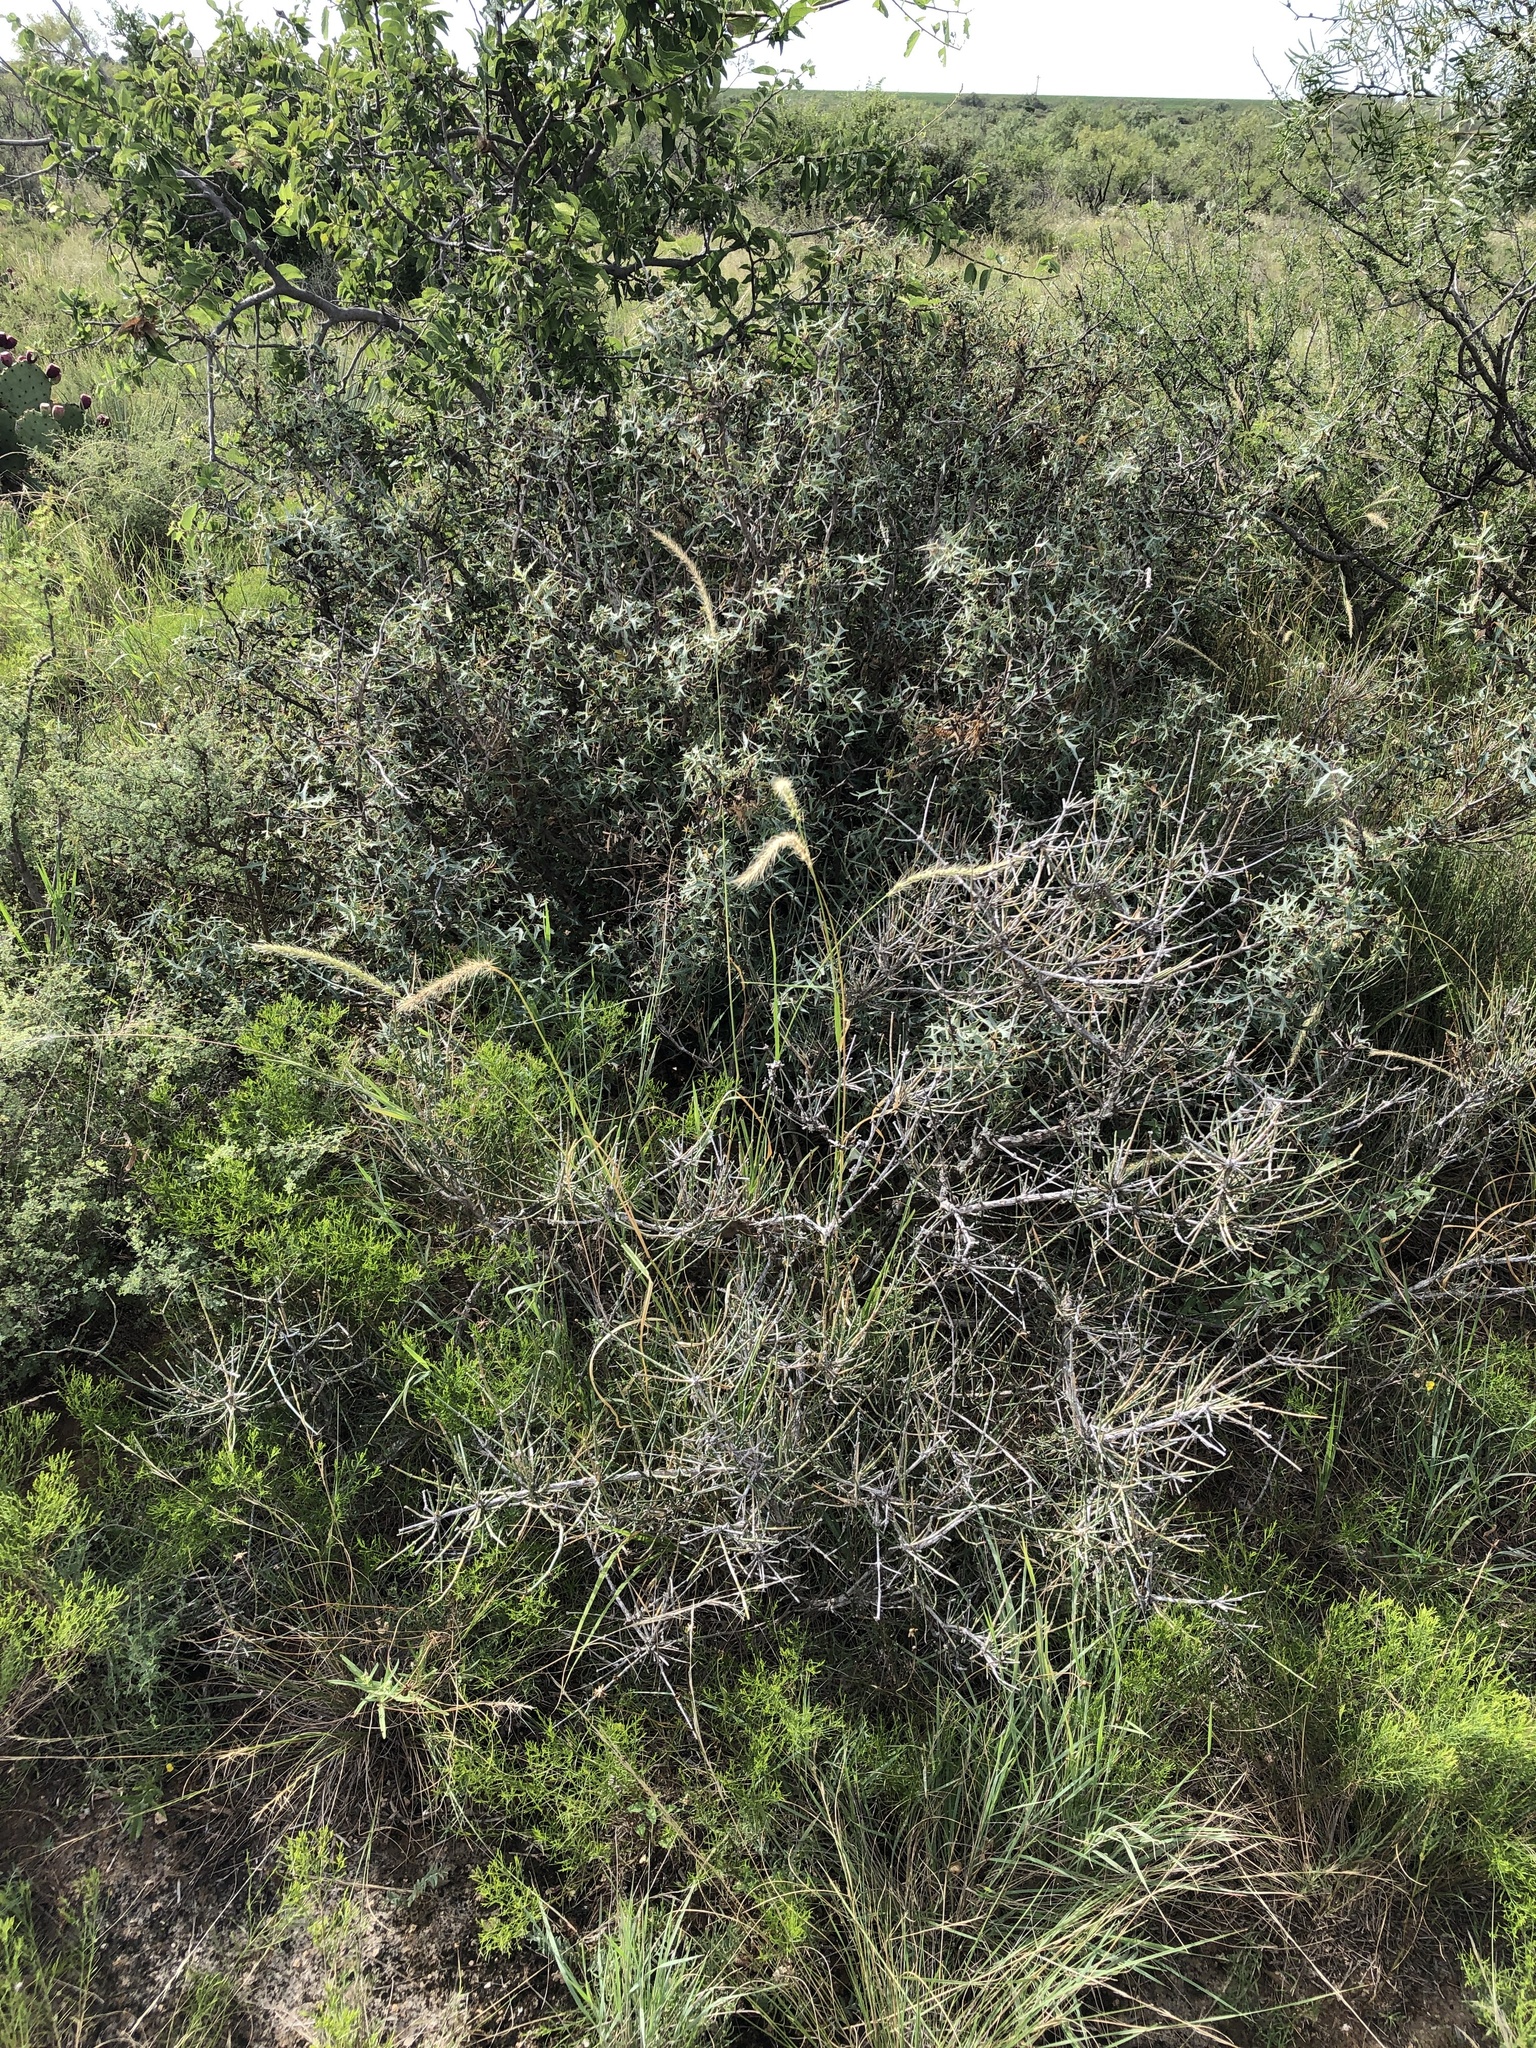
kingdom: Plantae
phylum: Tracheophyta
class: Liliopsida
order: Poales
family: Poaceae
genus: Setaria
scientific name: Setaria leucopila
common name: Plains bristle grass
